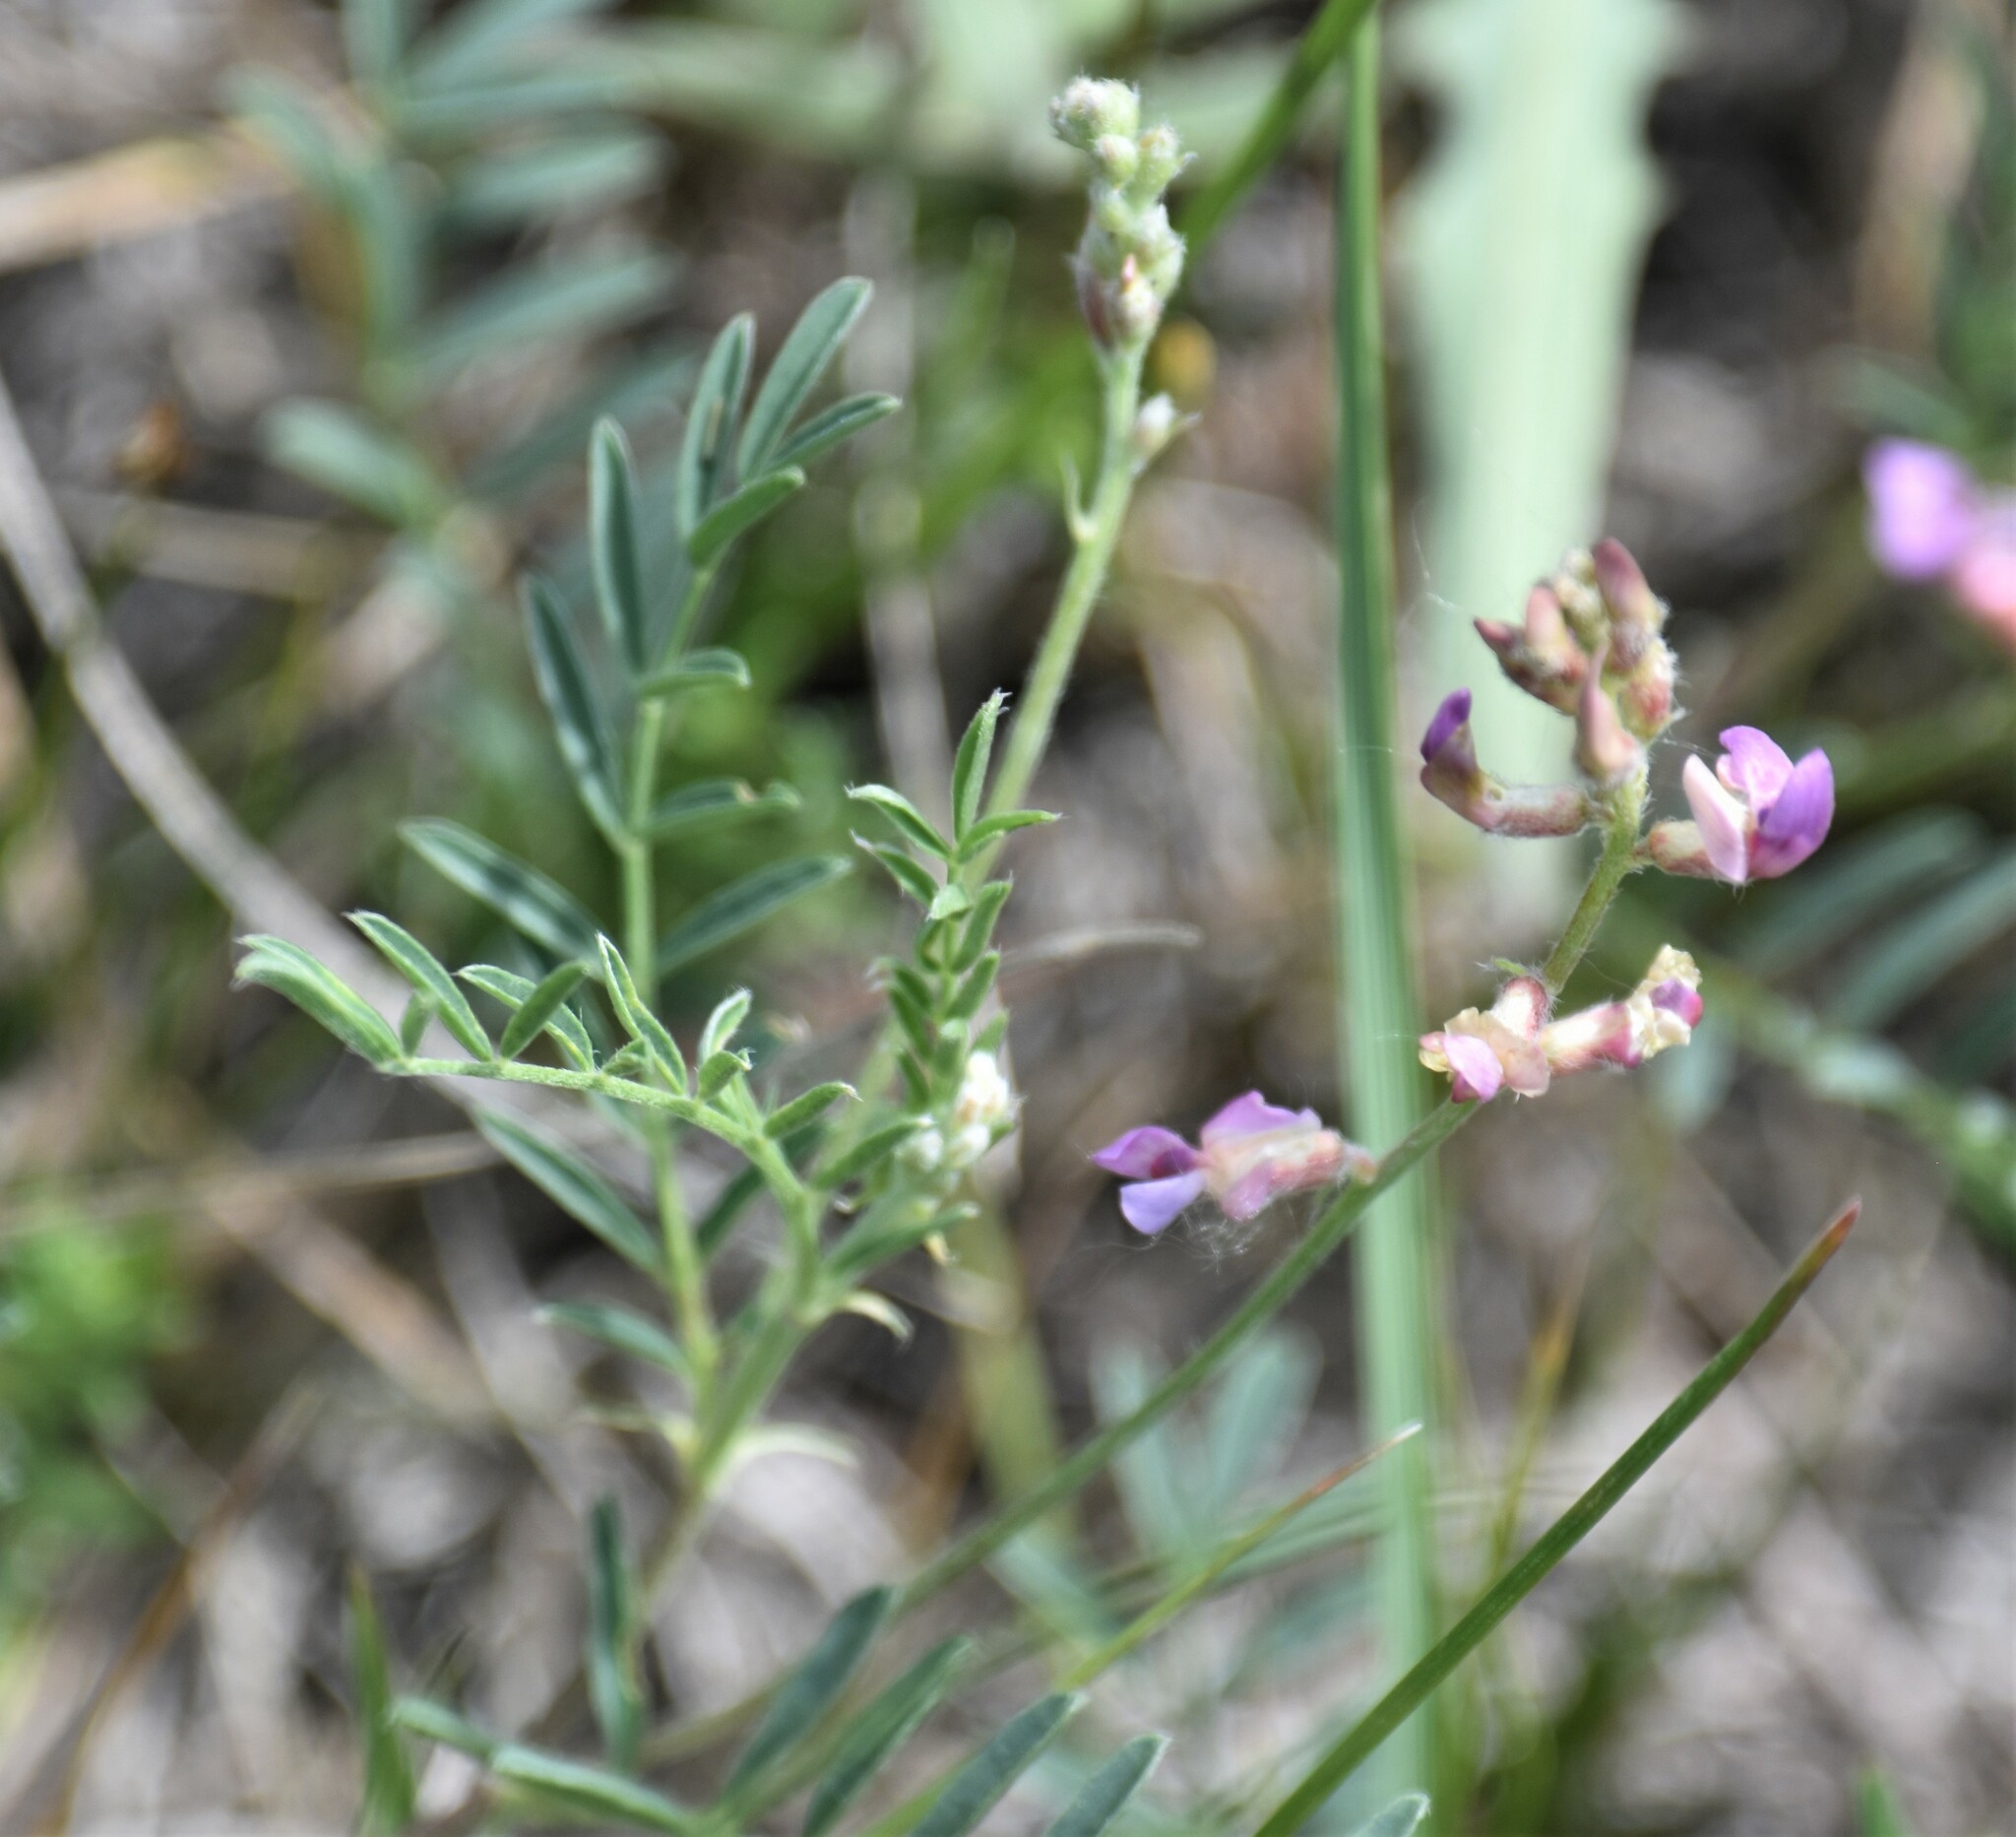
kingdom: Plantae
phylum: Tracheophyta
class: Magnoliopsida
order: Fabales
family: Fabaceae
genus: Astragalus
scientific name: Astragalus flexuosus
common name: Pliant milk-vetch
